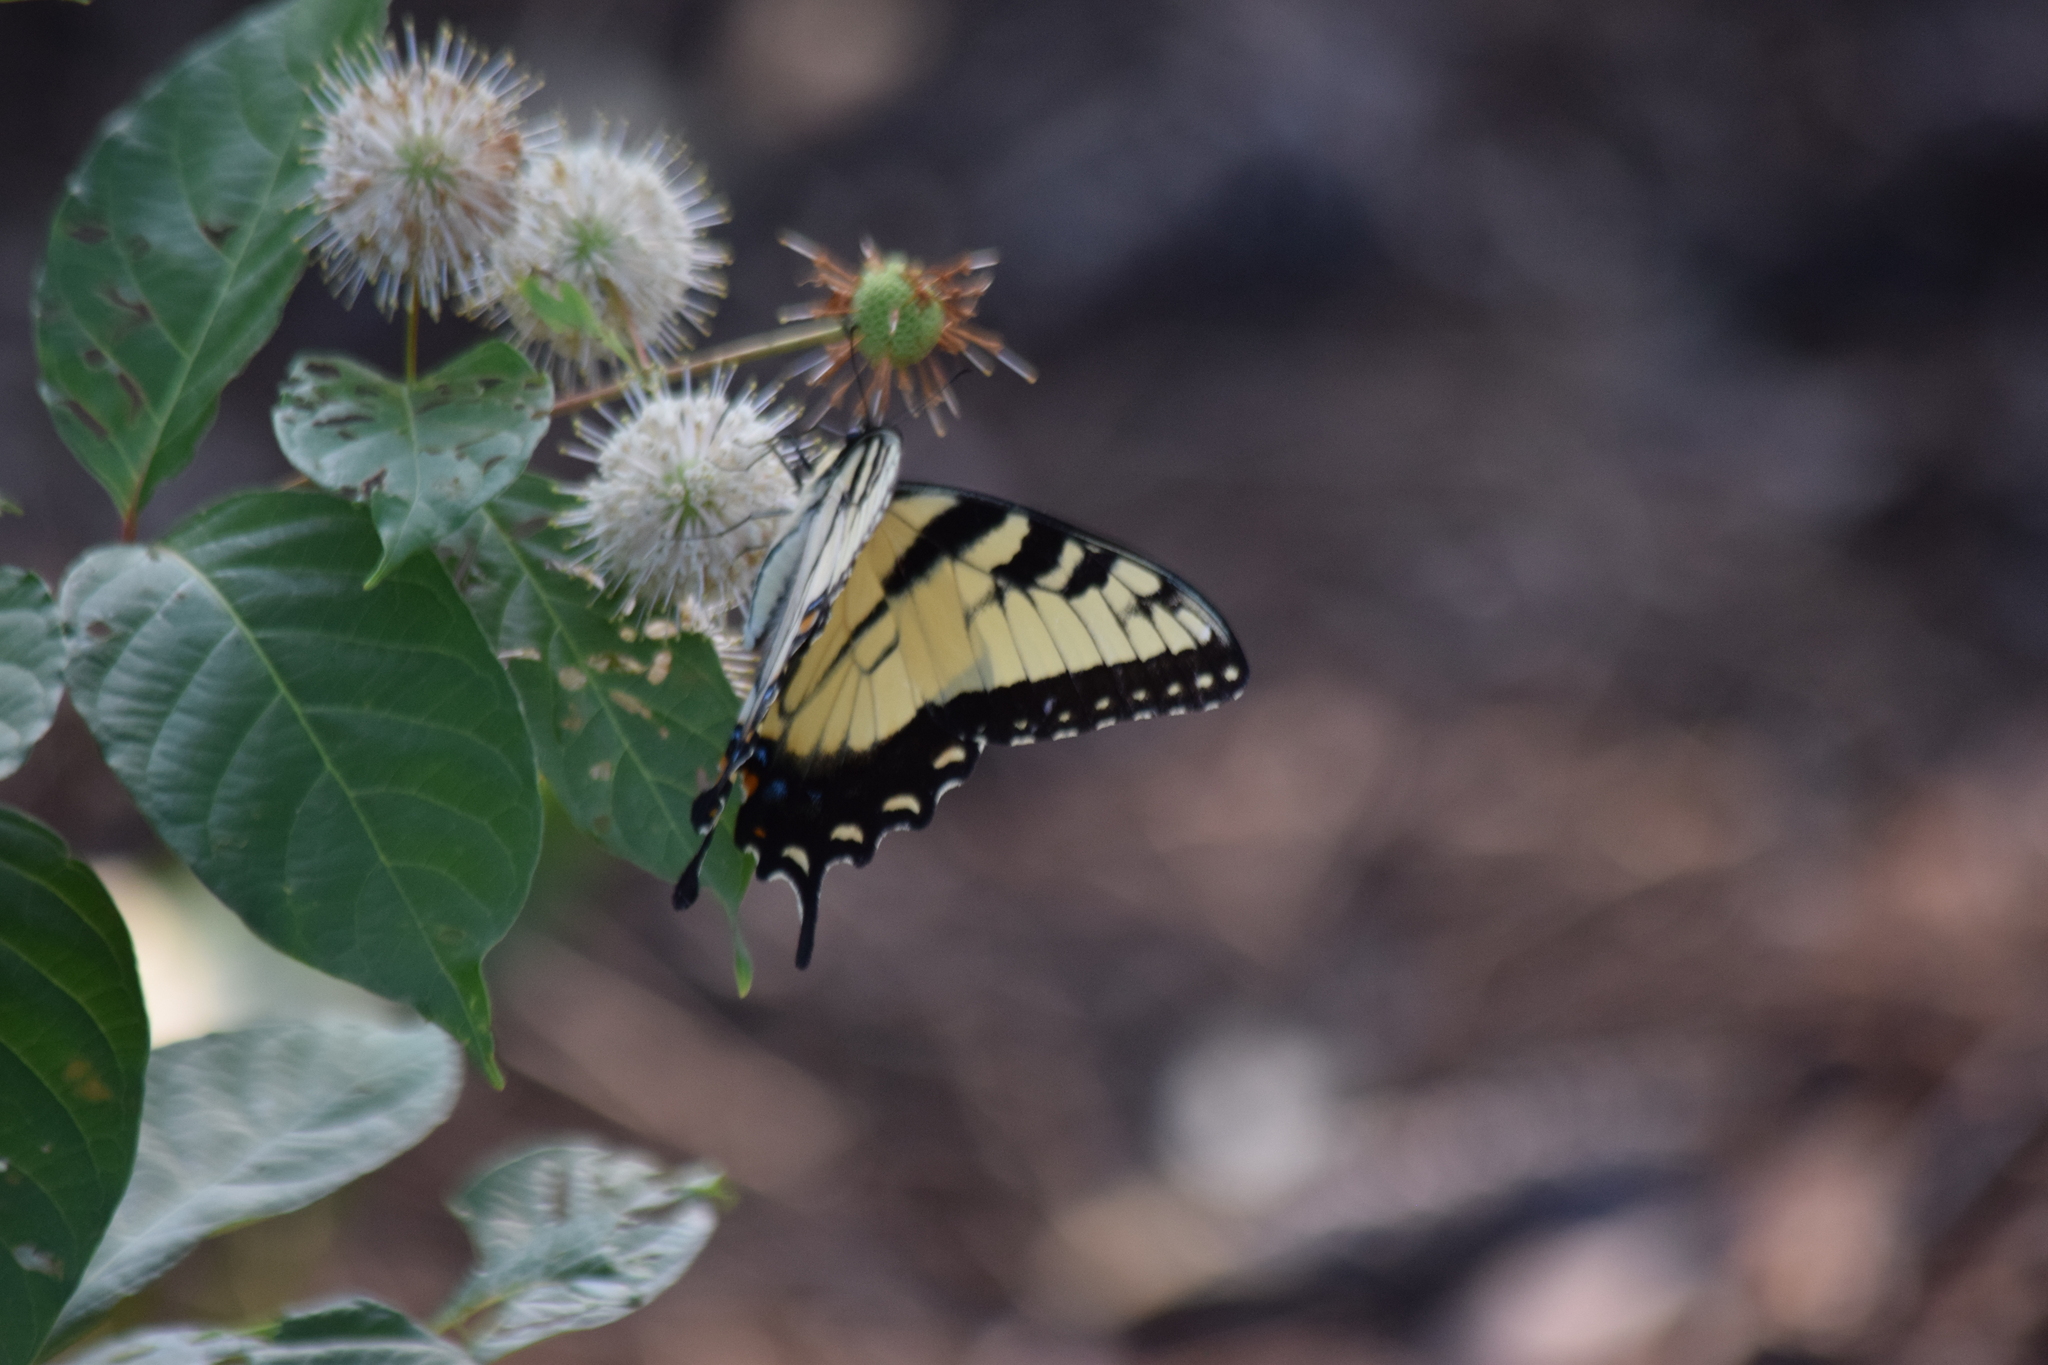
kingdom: Animalia
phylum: Arthropoda
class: Insecta
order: Lepidoptera
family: Papilionidae
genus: Papilio
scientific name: Papilio glaucus
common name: Tiger swallowtail
